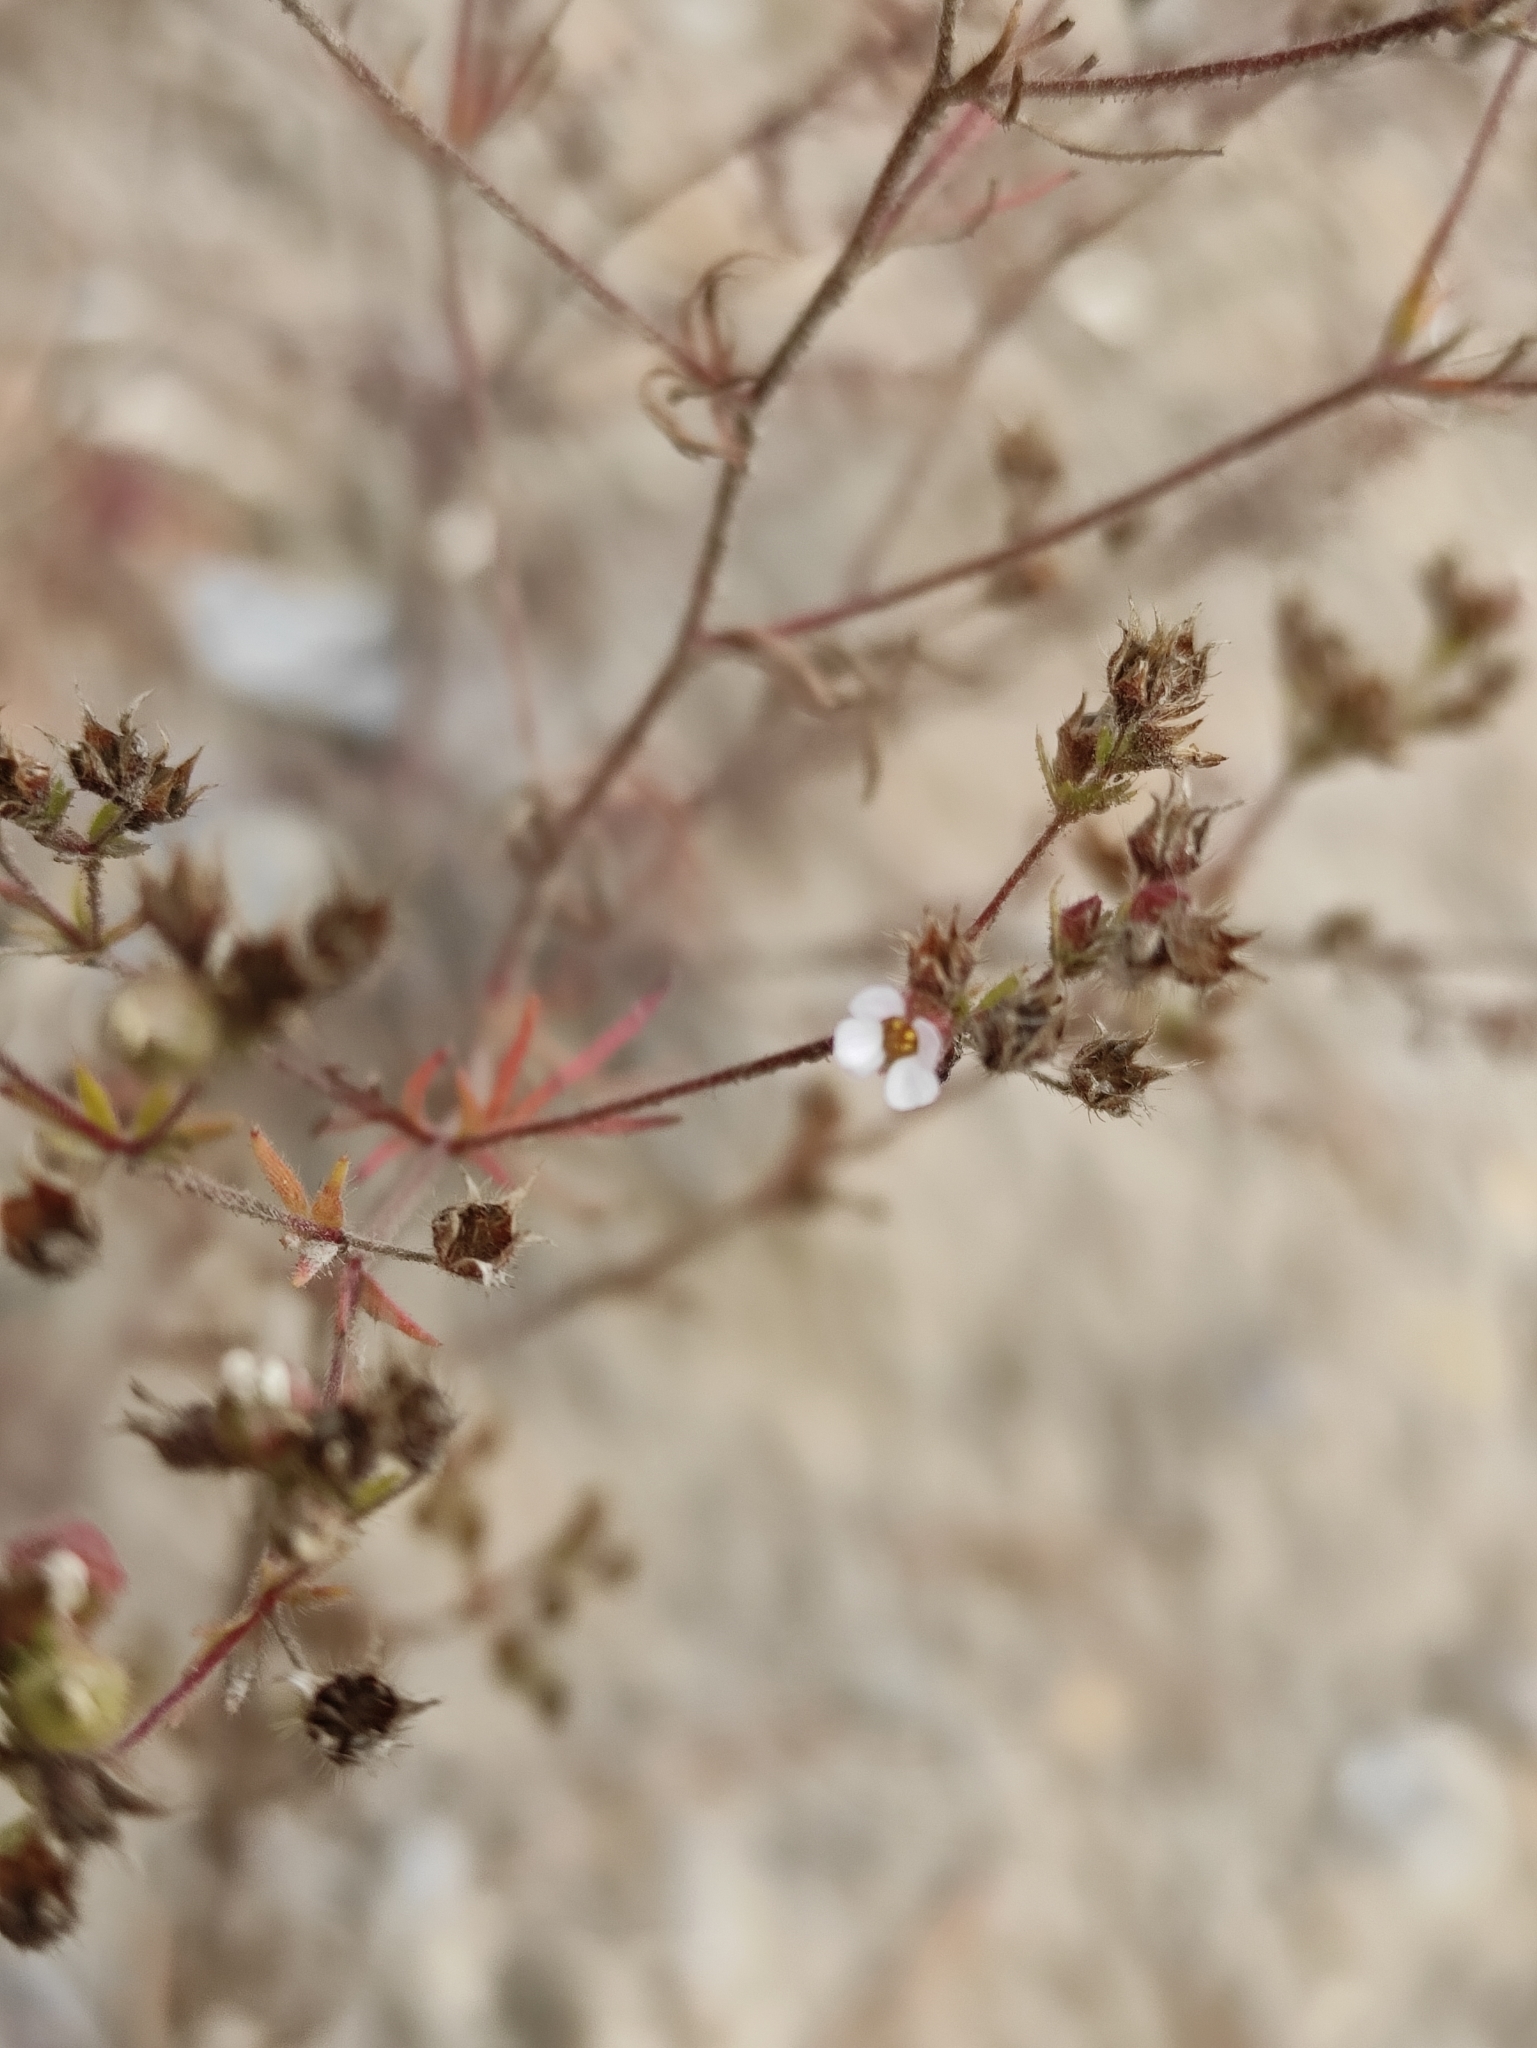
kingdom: Plantae
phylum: Tracheophyta
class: Magnoliopsida
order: Rosales
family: Rosaceae
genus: Chamaerhodos
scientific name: Chamaerhodos erecta
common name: American chamaerhodos
